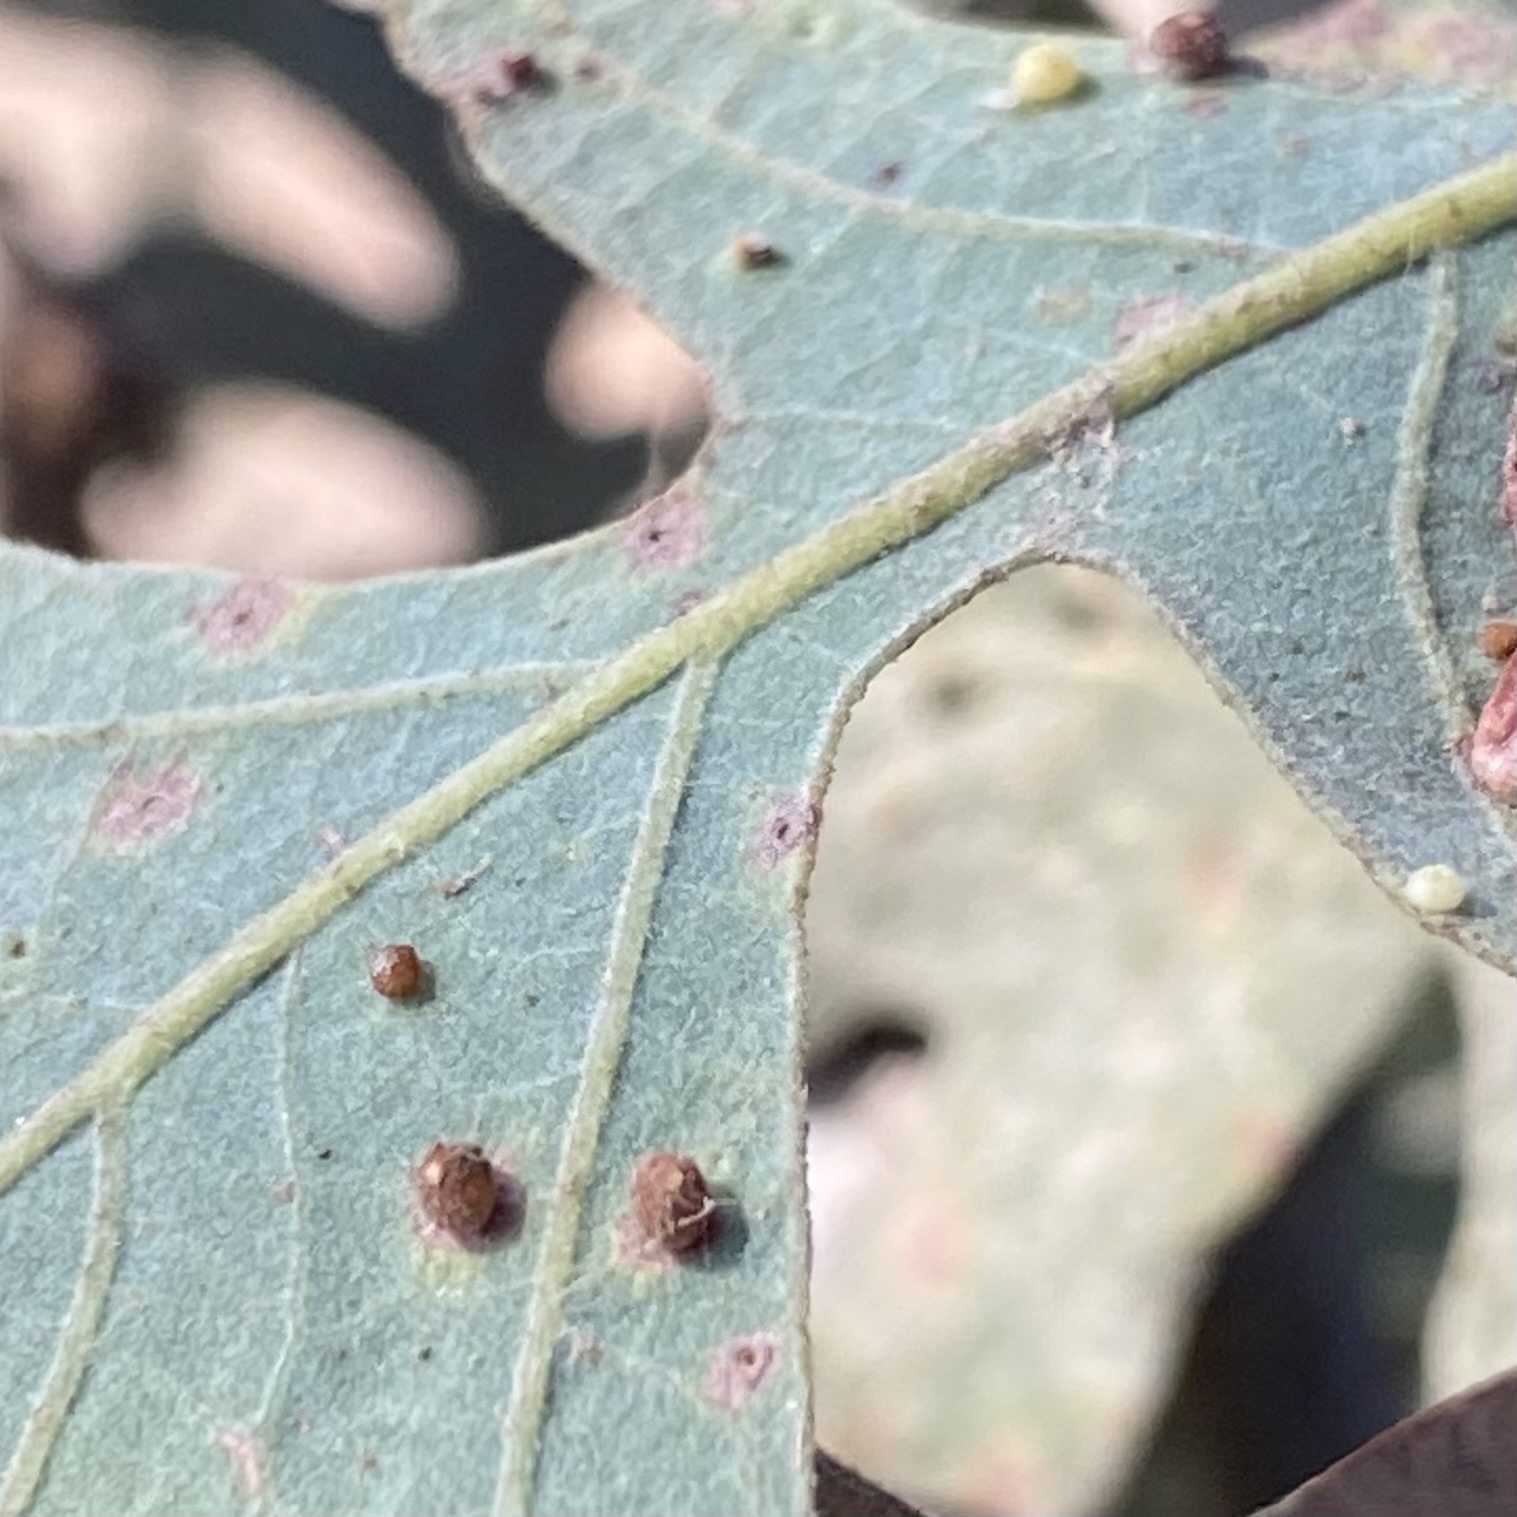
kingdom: Animalia
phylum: Arthropoda
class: Insecta
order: Hymenoptera
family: Cynipidae
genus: Neuroterus
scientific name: Neuroterus saltarius
